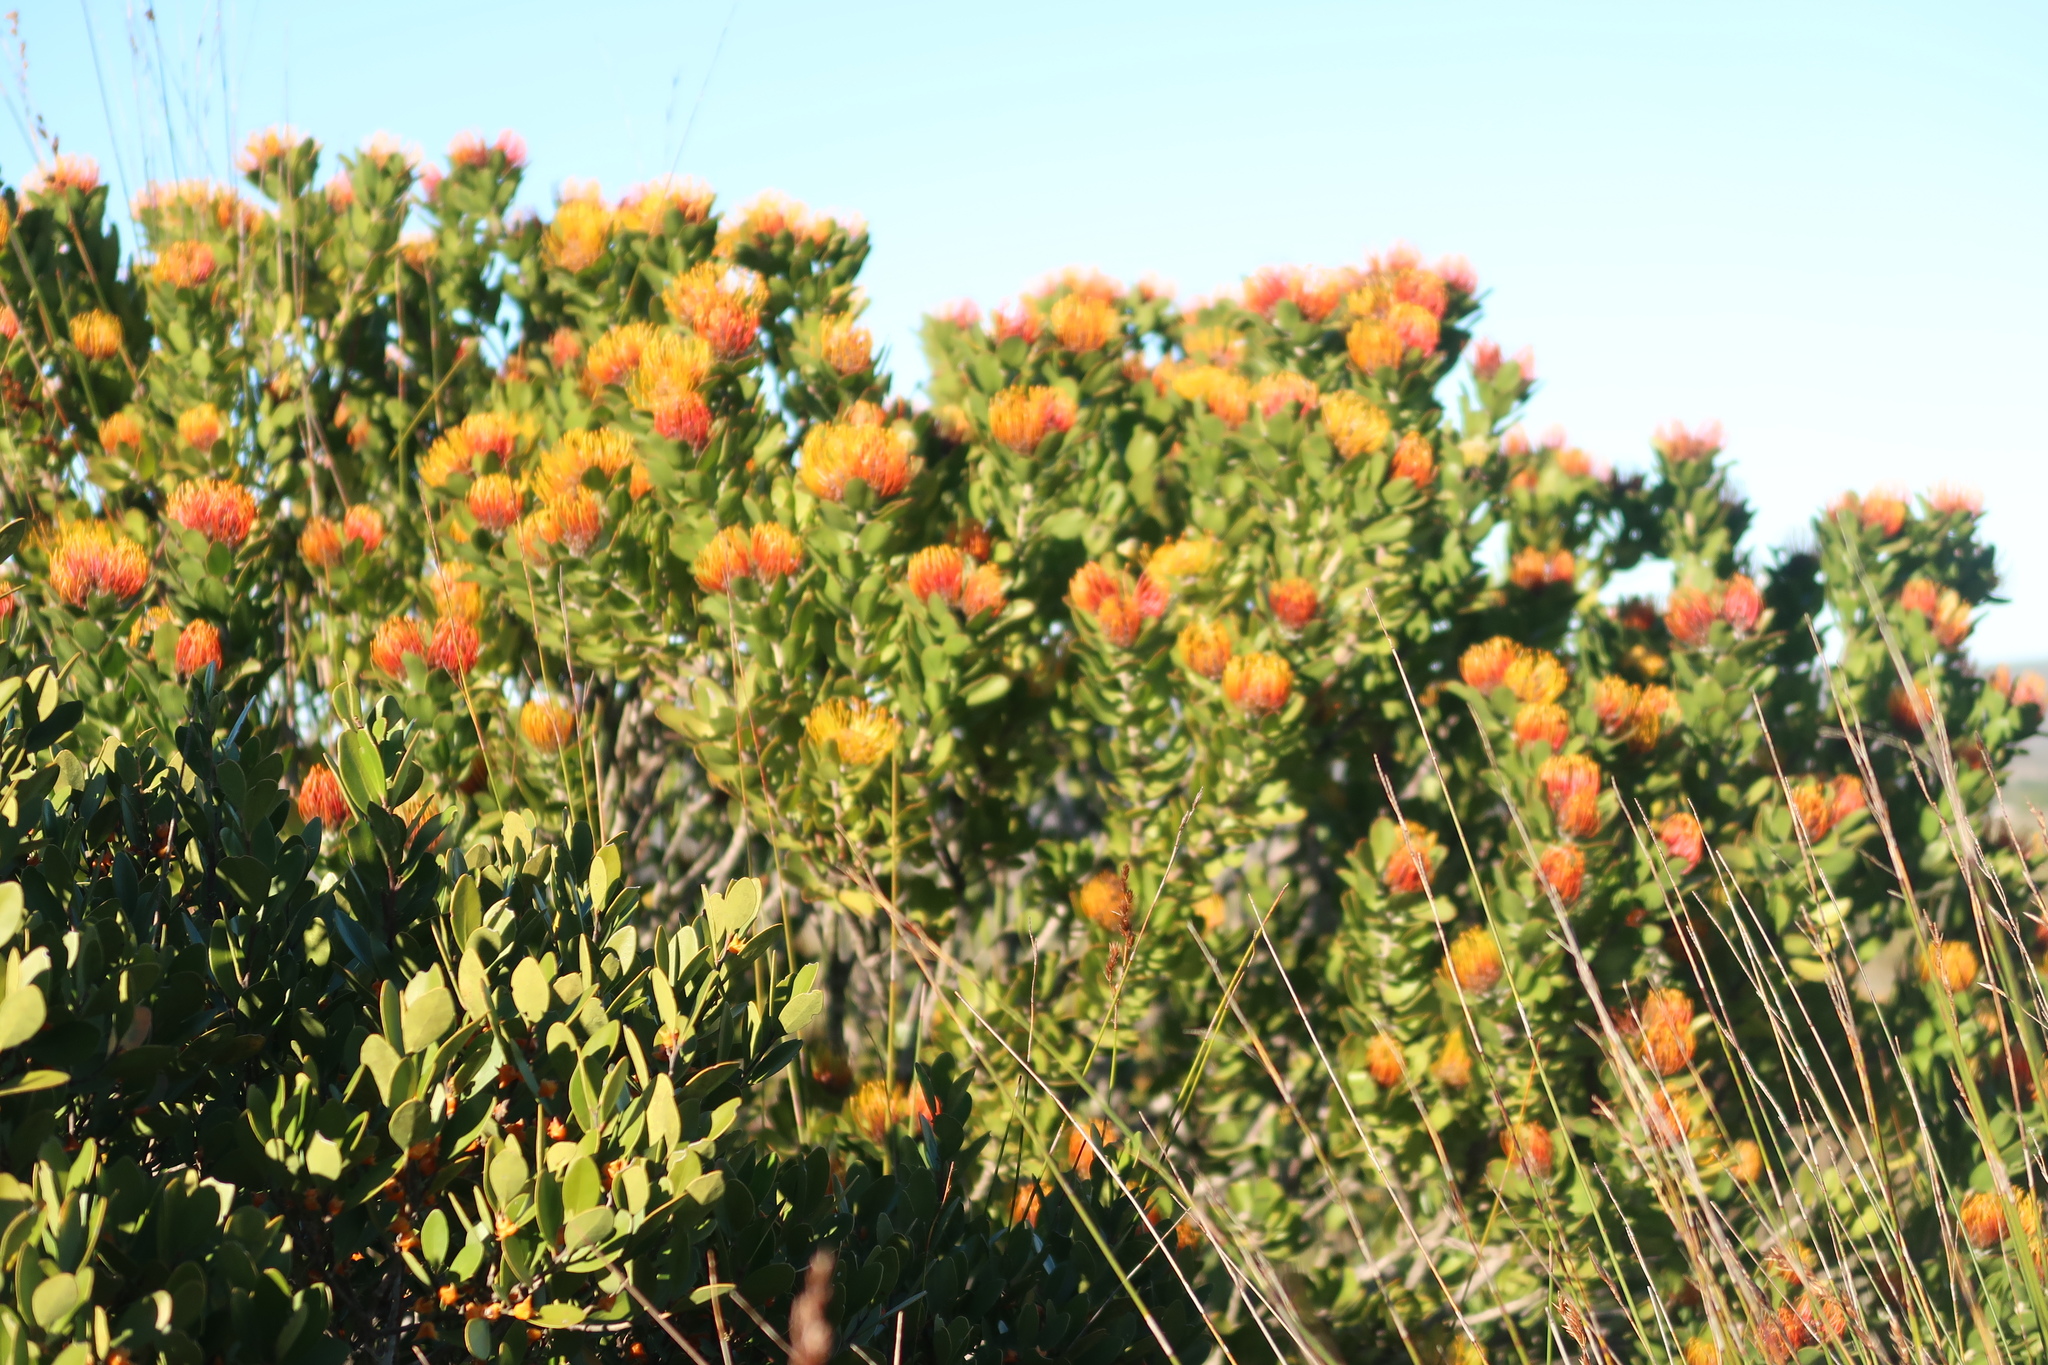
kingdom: Plantae
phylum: Tracheophyta
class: Magnoliopsida
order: Proteales
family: Proteaceae
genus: Leucospermum
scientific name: Leucospermum praecox
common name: Mossel bay pincushion
